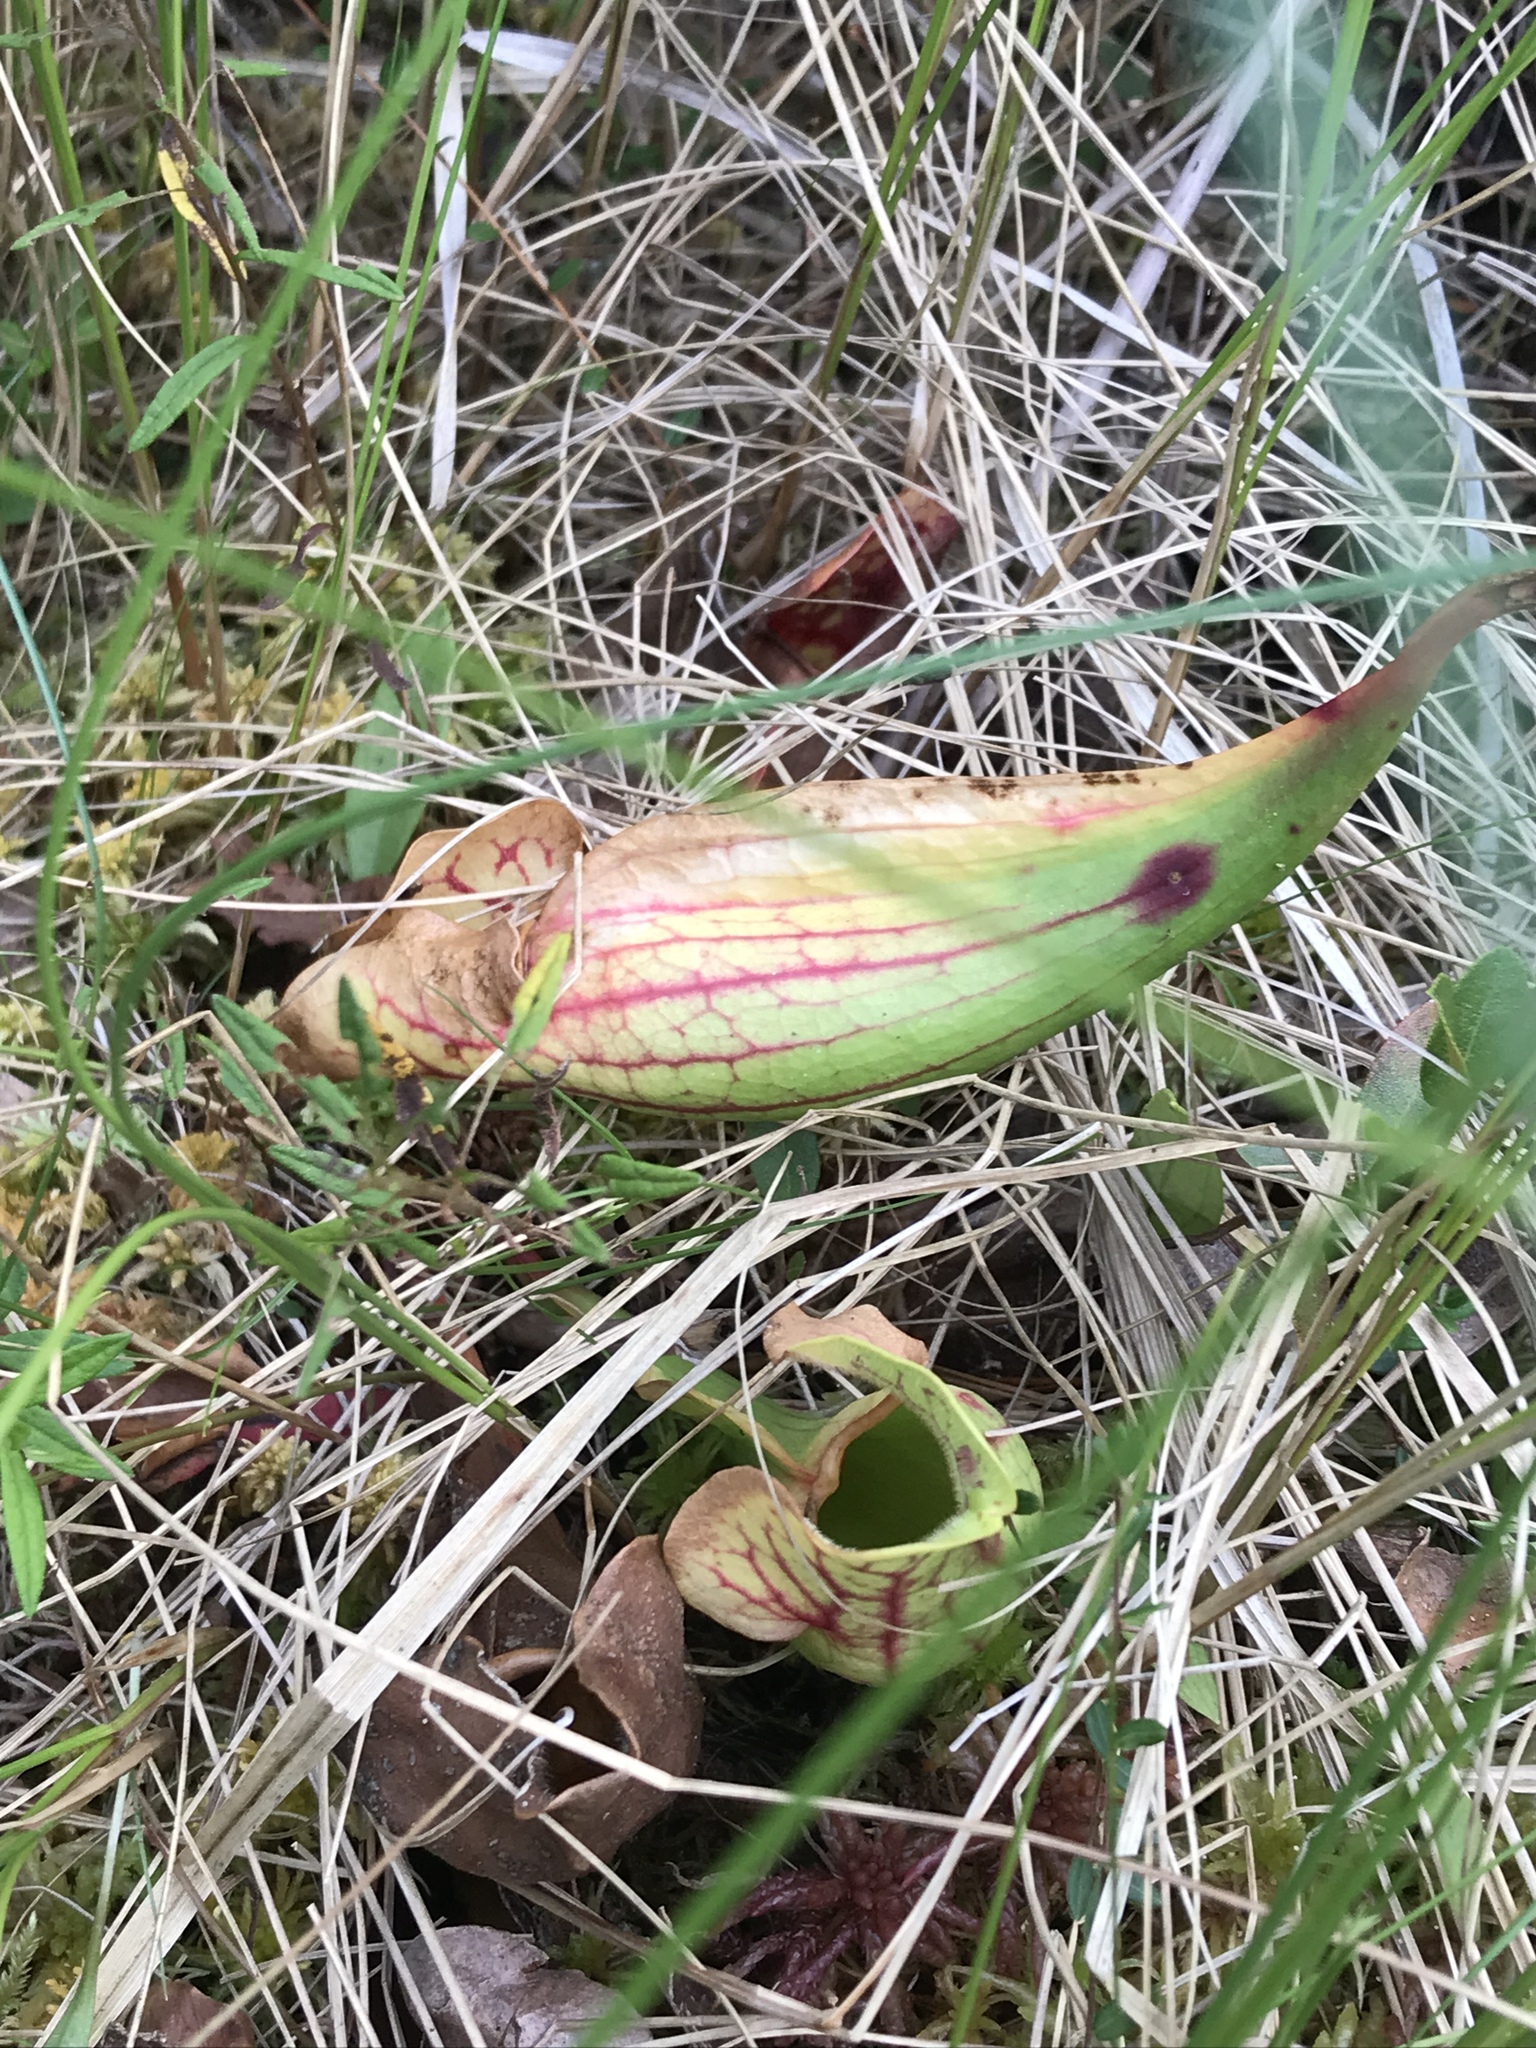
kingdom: Plantae
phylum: Tracheophyta
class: Magnoliopsida
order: Ericales
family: Sarraceniaceae
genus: Sarracenia
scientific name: Sarracenia purpurea
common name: Pitcherplant
